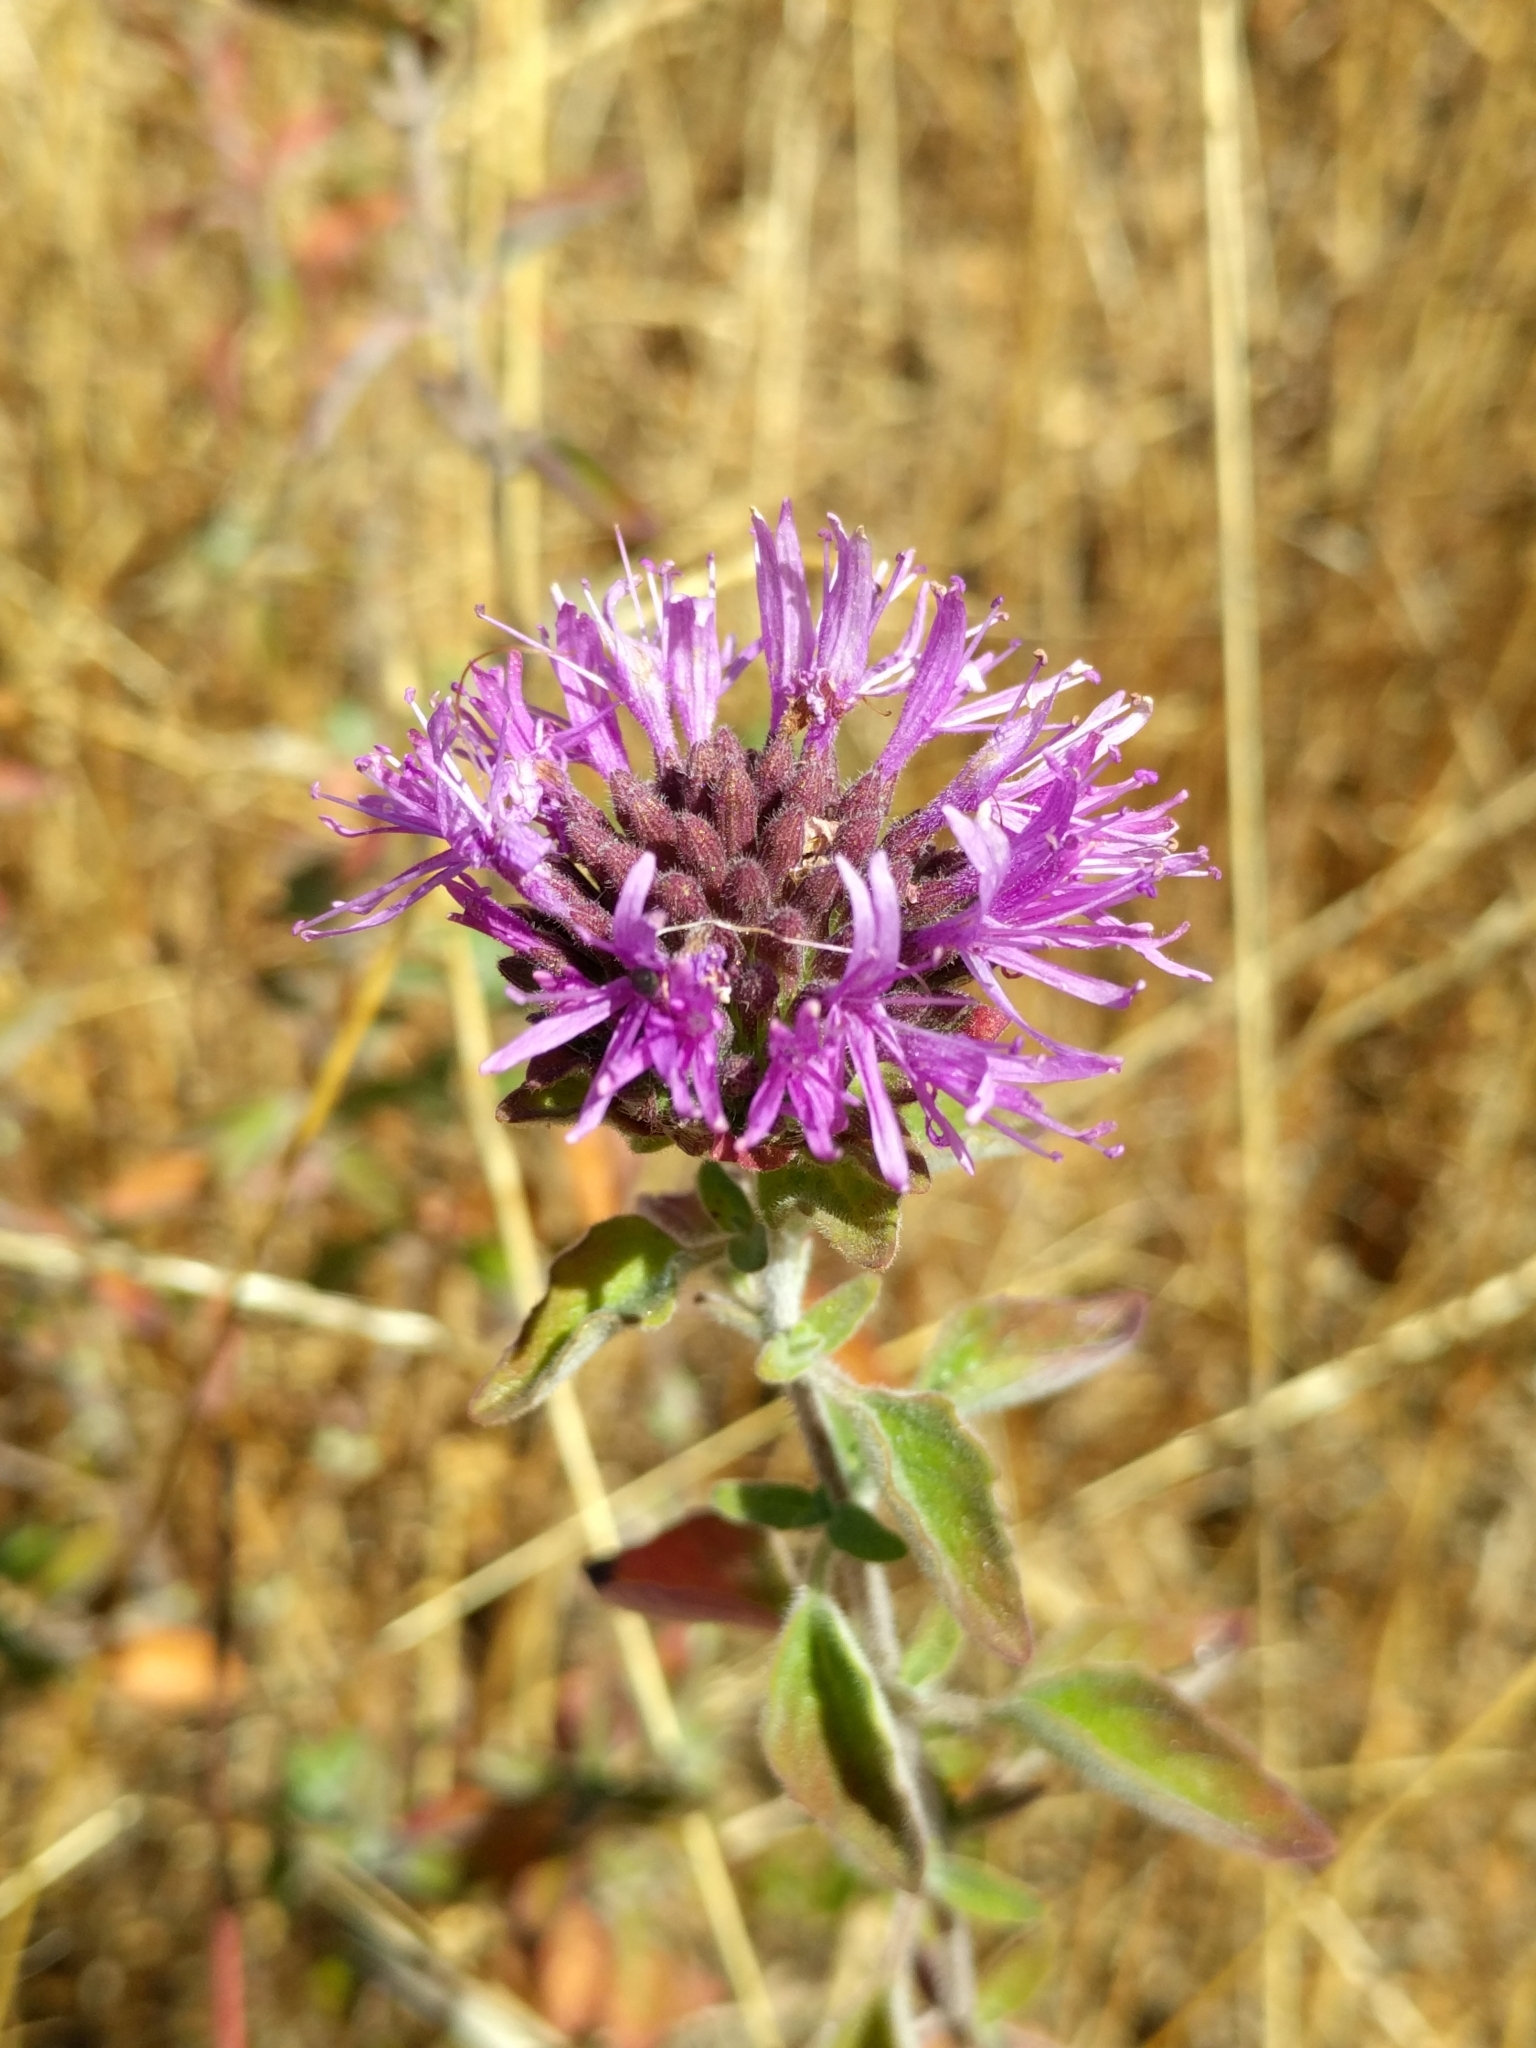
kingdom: Plantae
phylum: Tracheophyta
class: Magnoliopsida
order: Lamiales
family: Lamiaceae
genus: Monardella
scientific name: Monardella odoratissima
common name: Pacific monardella
